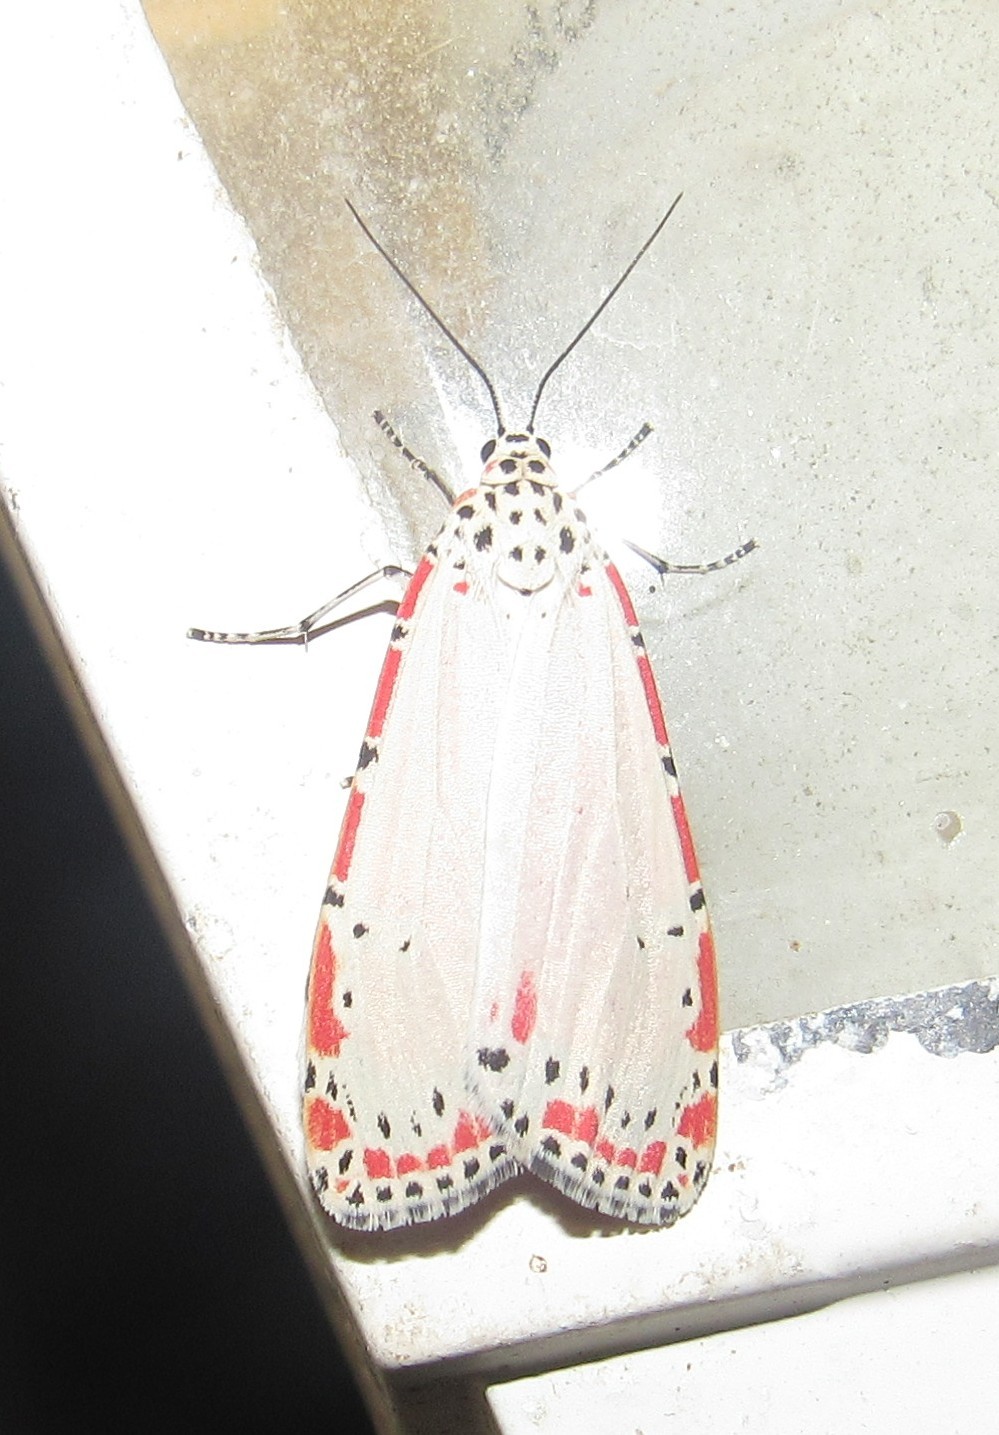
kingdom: Animalia
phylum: Arthropoda
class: Insecta
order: Lepidoptera
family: Erebidae
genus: Utetheisa
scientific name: Utetheisa ornatrix
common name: Beautiful utetheisa
